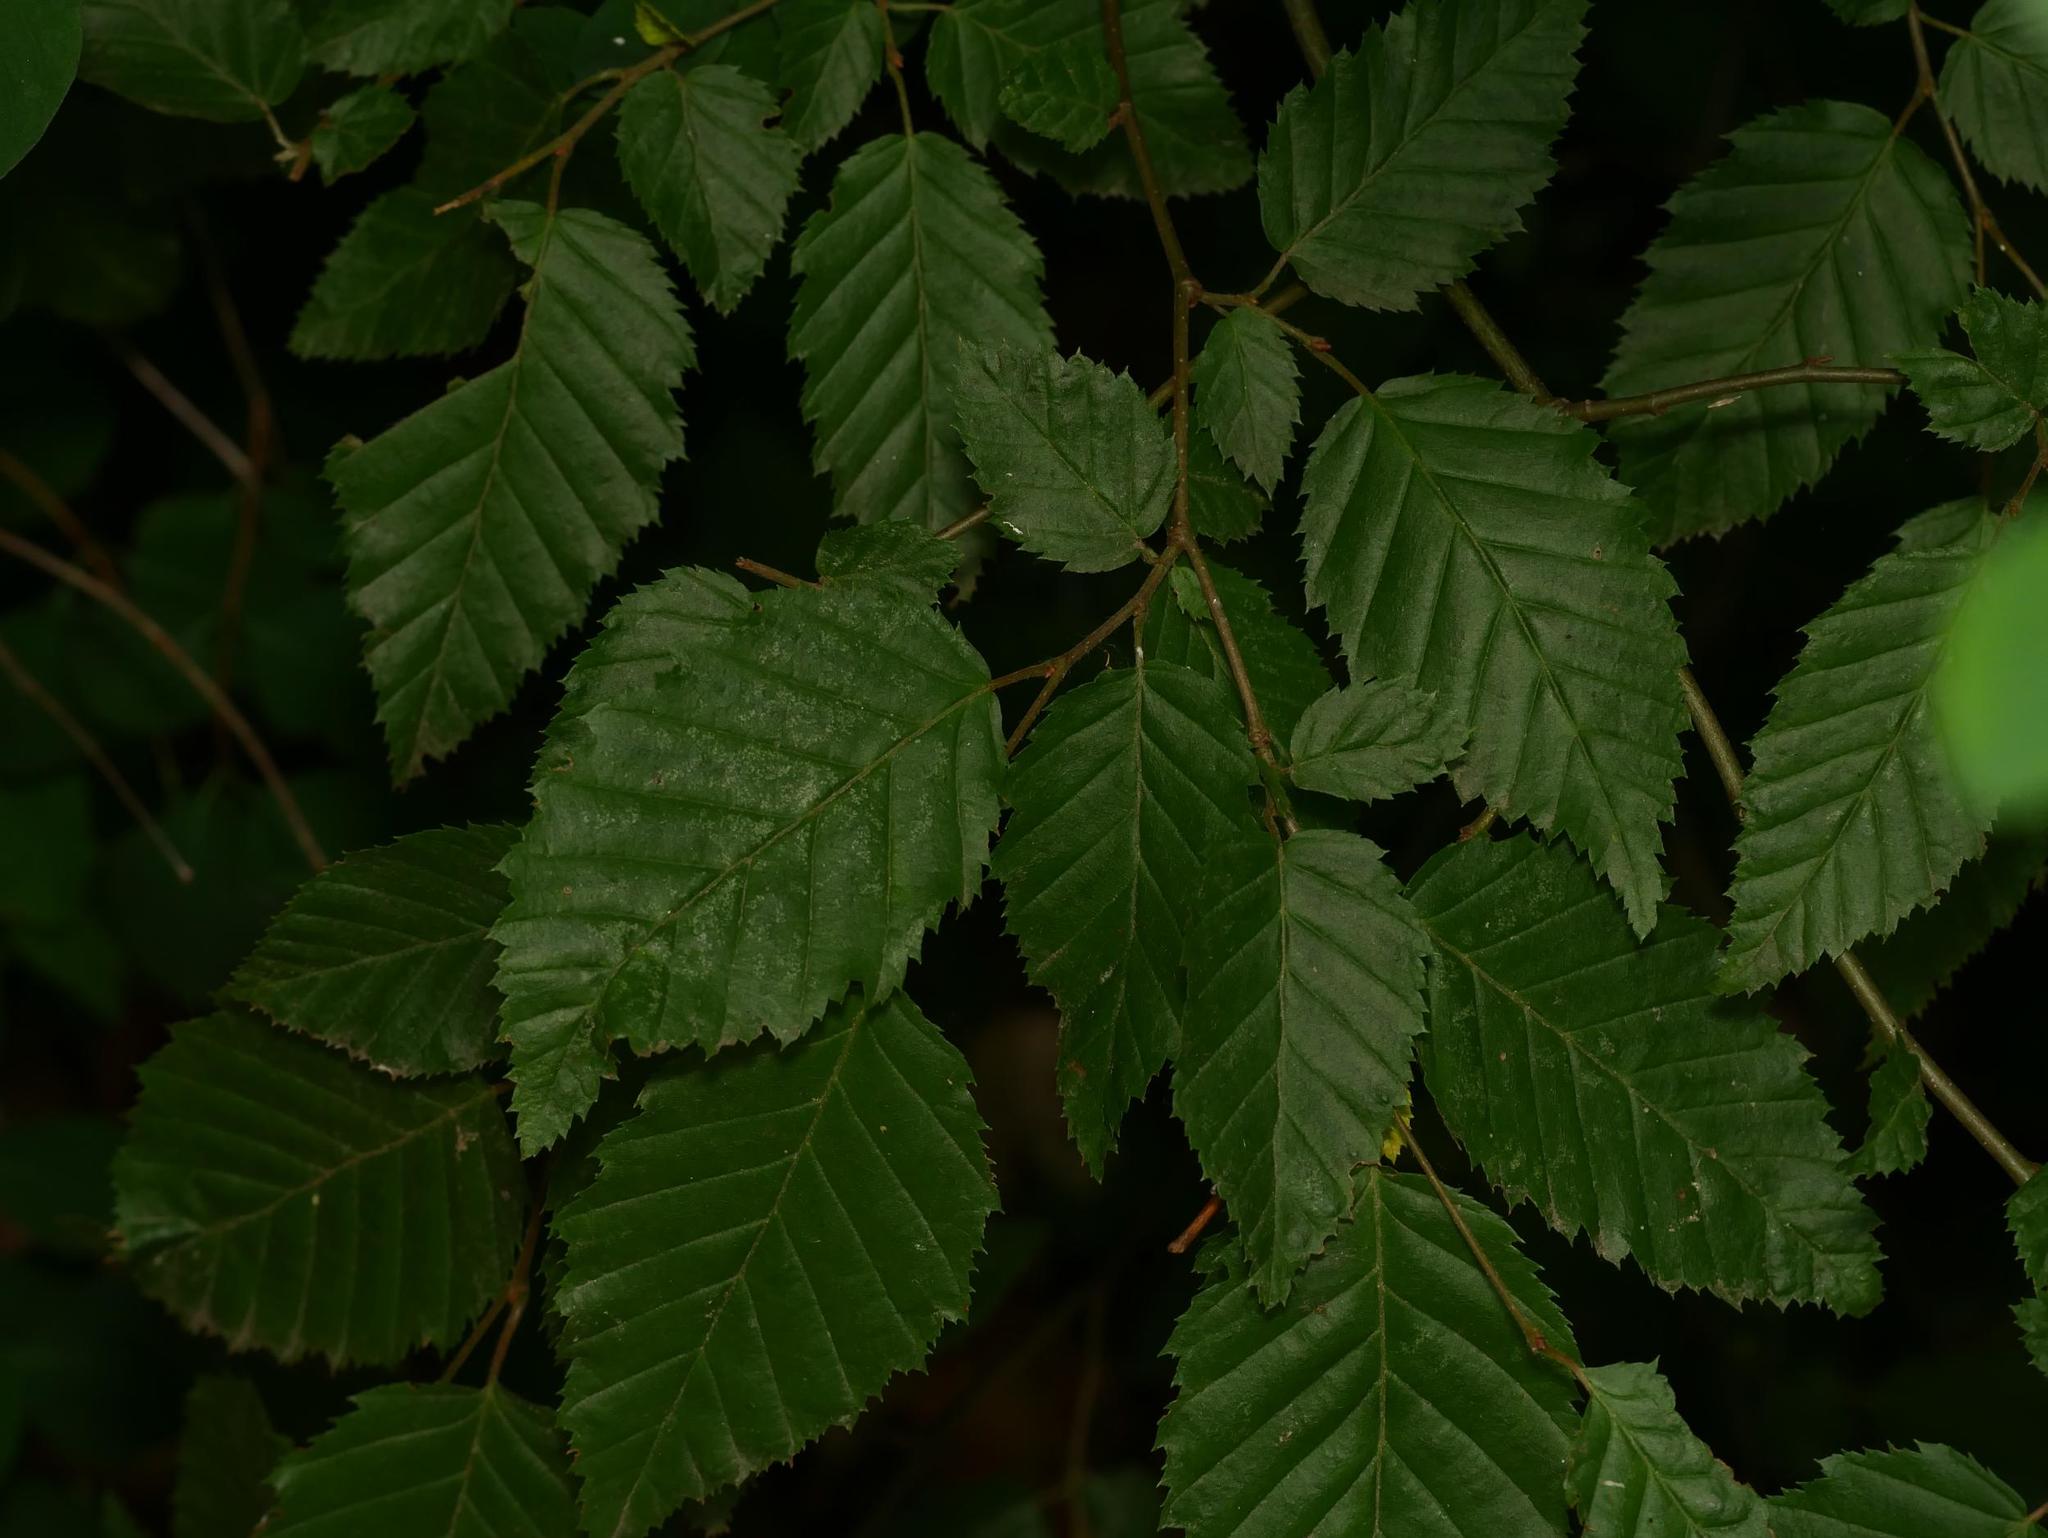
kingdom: Plantae
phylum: Tracheophyta
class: Magnoliopsida
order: Fagales
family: Betulaceae
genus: Carpinus
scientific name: Carpinus betulus
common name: Hornbeam
